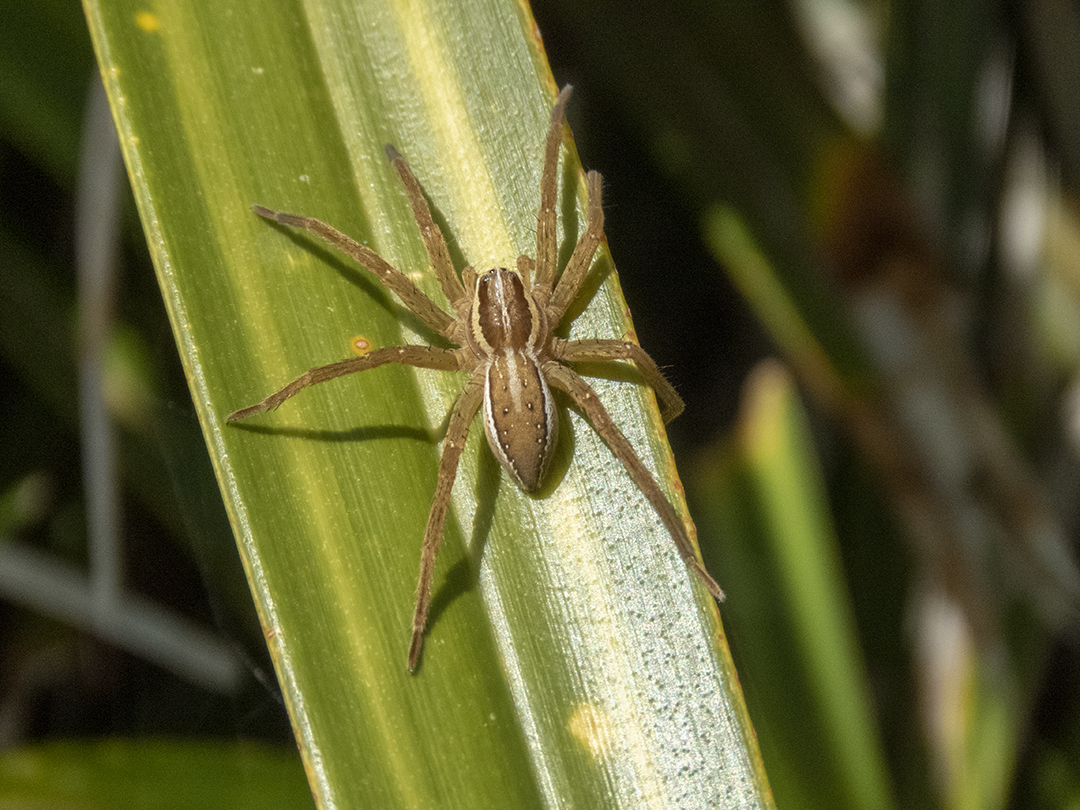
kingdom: Animalia
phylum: Arthropoda
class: Arachnida
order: Araneae
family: Pisauridae
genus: Dolomedes
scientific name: Dolomedes minor
